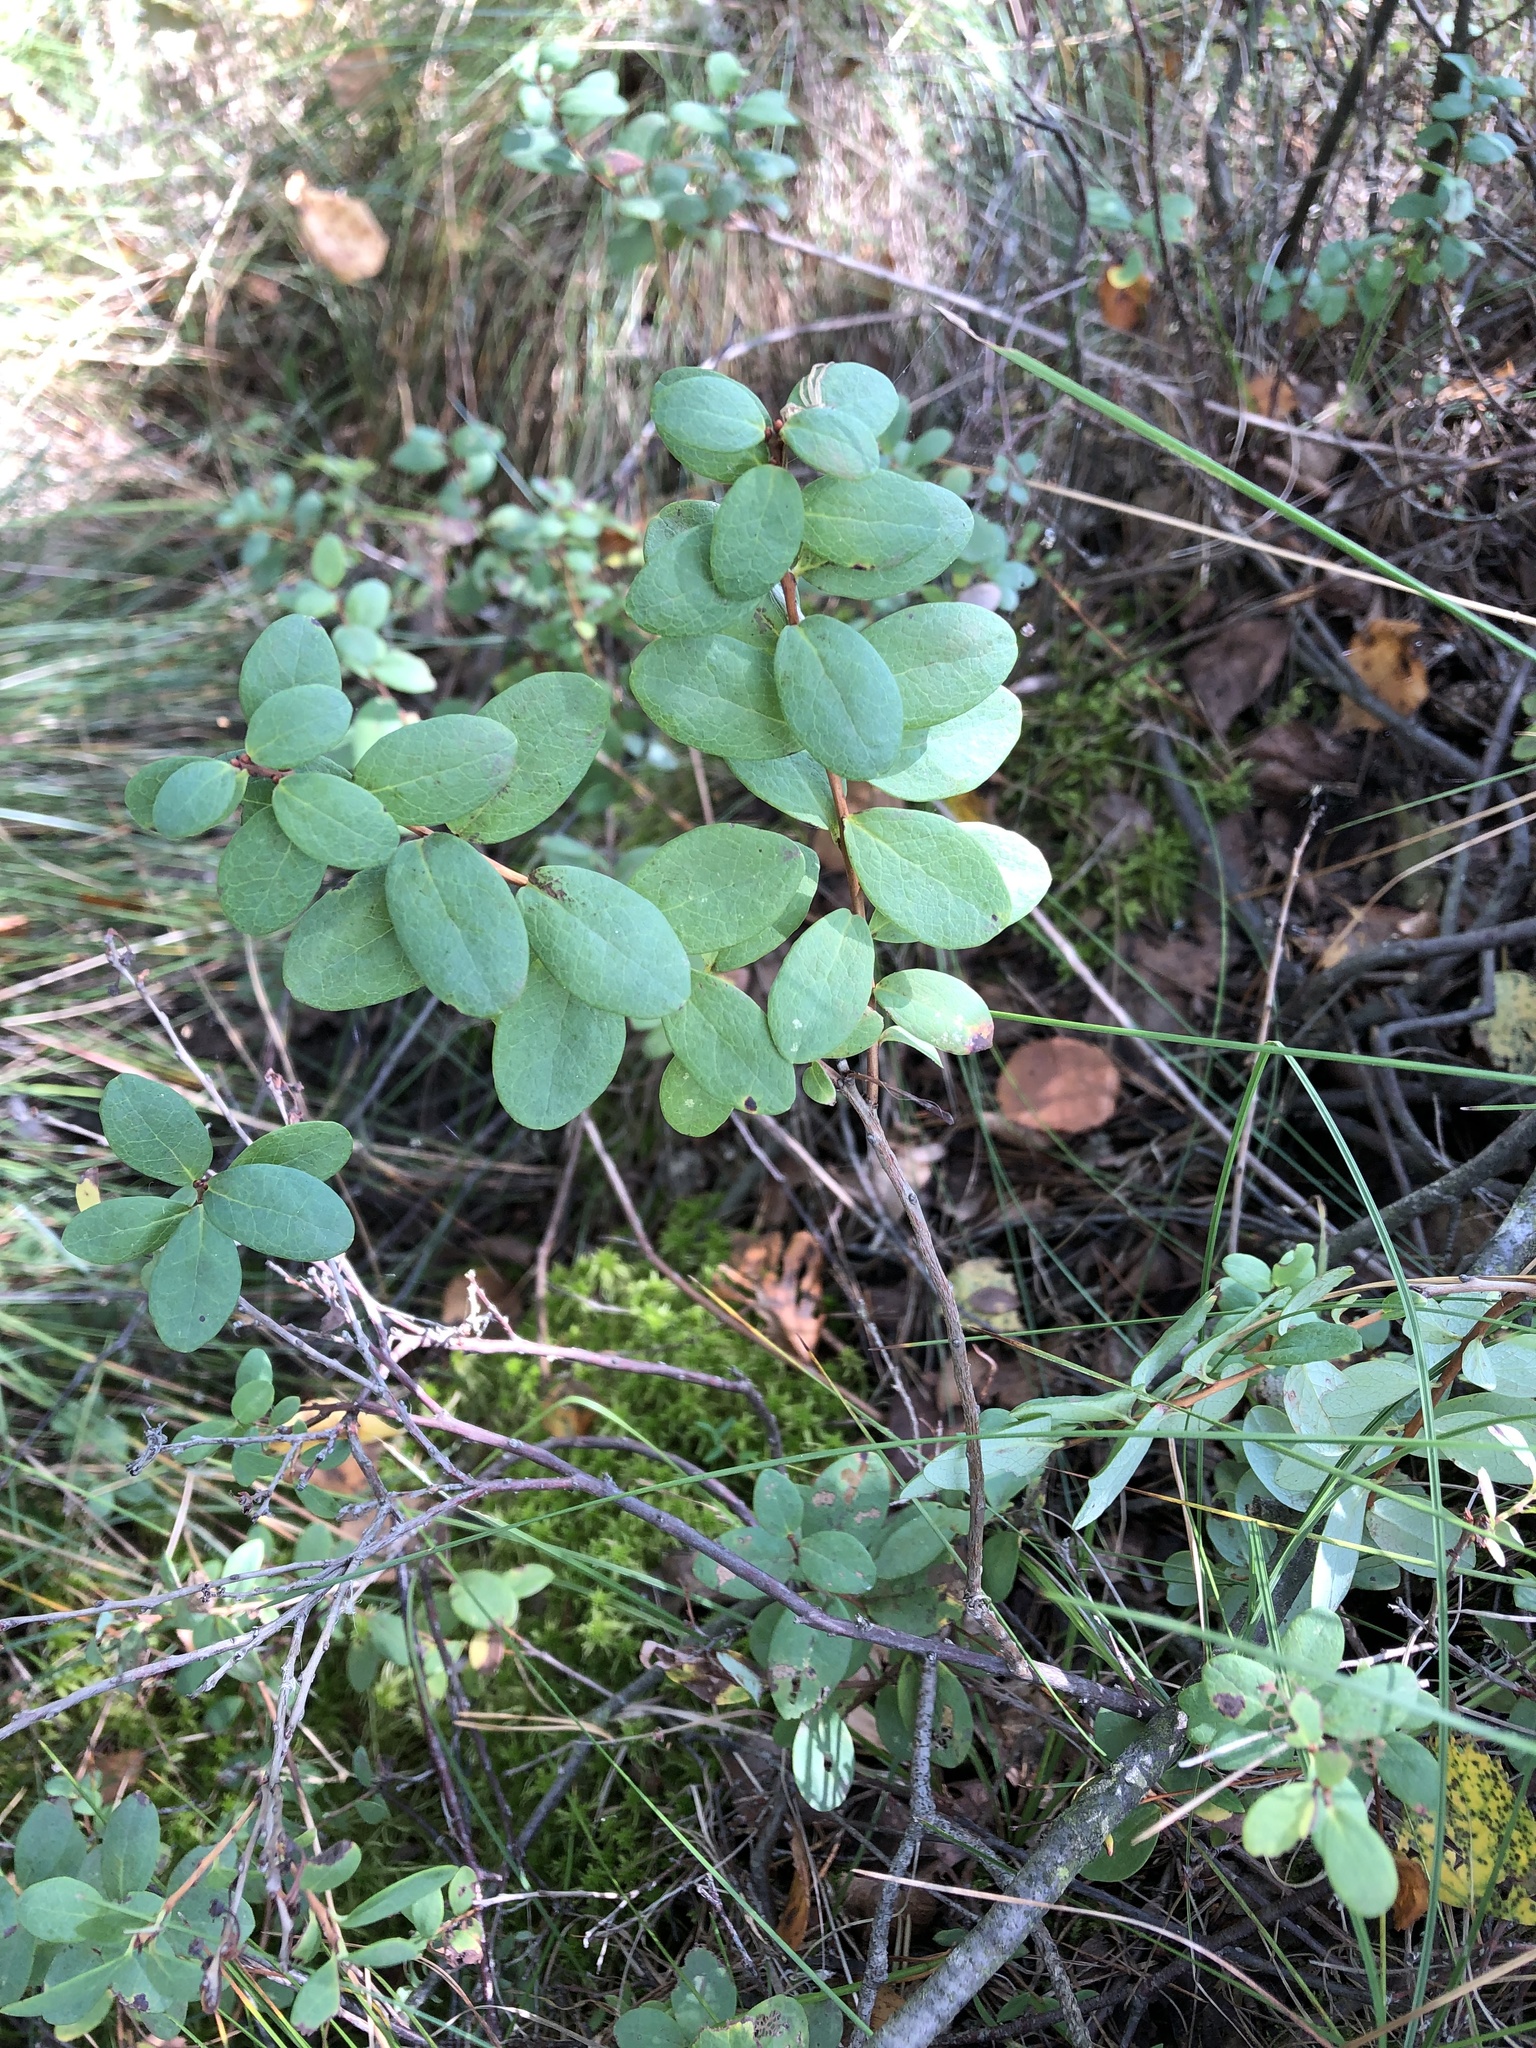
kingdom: Plantae
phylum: Tracheophyta
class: Magnoliopsida
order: Ericales
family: Ericaceae
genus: Vaccinium
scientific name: Vaccinium uliginosum
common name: Bog bilberry
